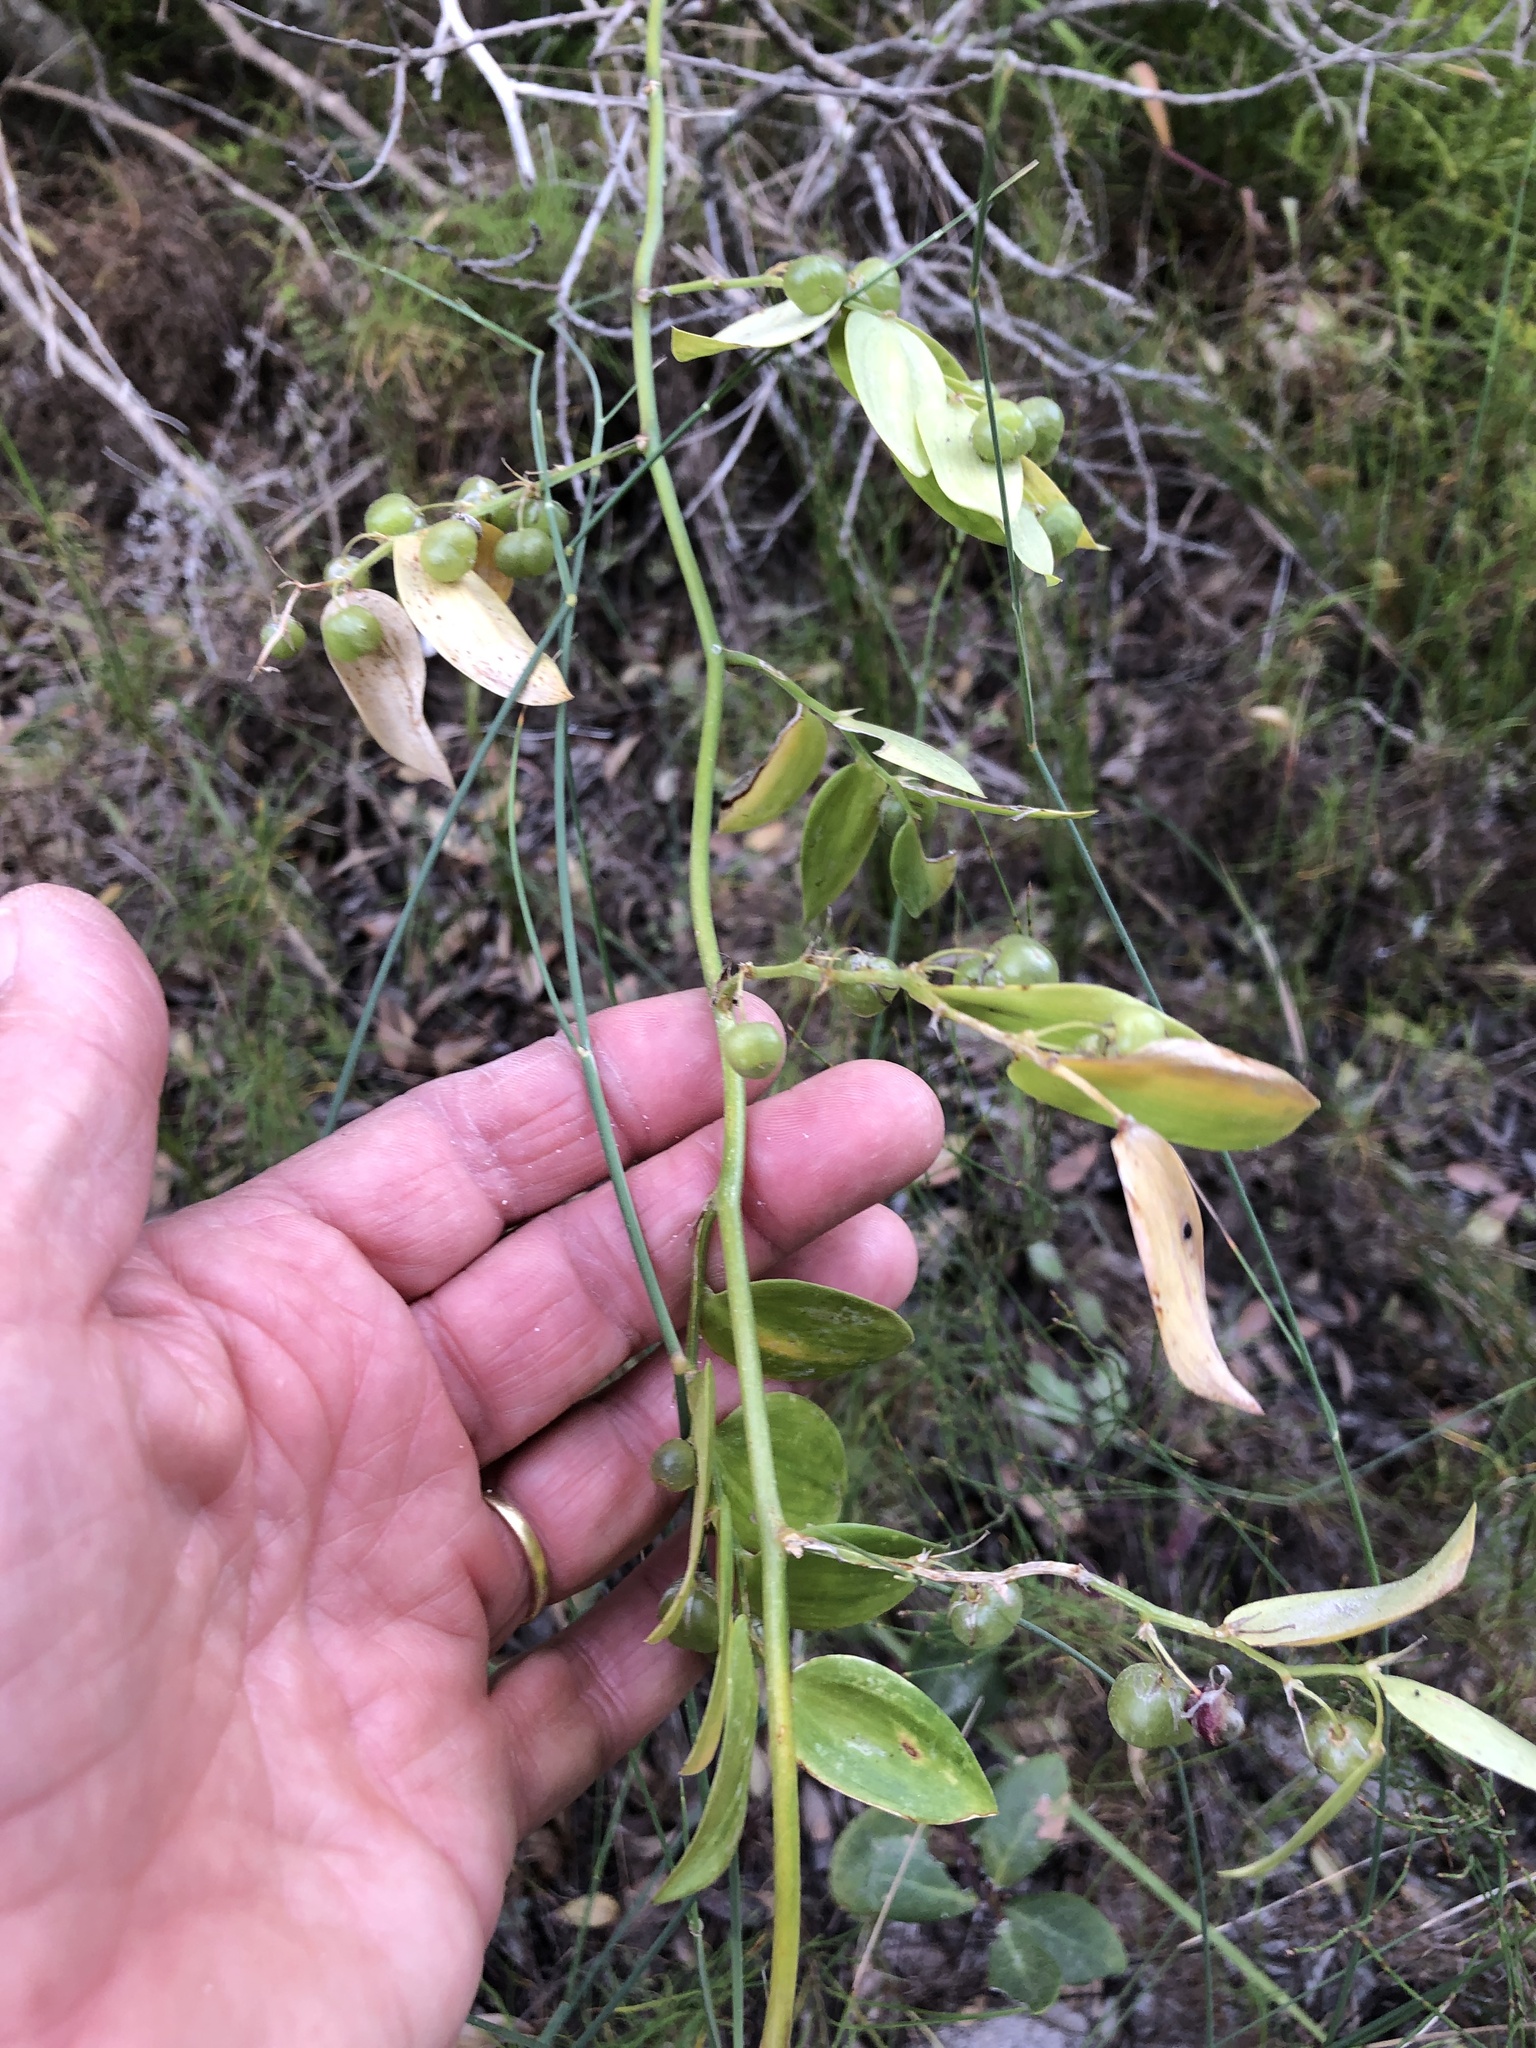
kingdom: Plantae
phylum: Tracheophyta
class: Liliopsida
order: Asparagales
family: Asparagaceae
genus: Asparagus
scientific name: Asparagus asparagoides
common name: African asparagus fern
